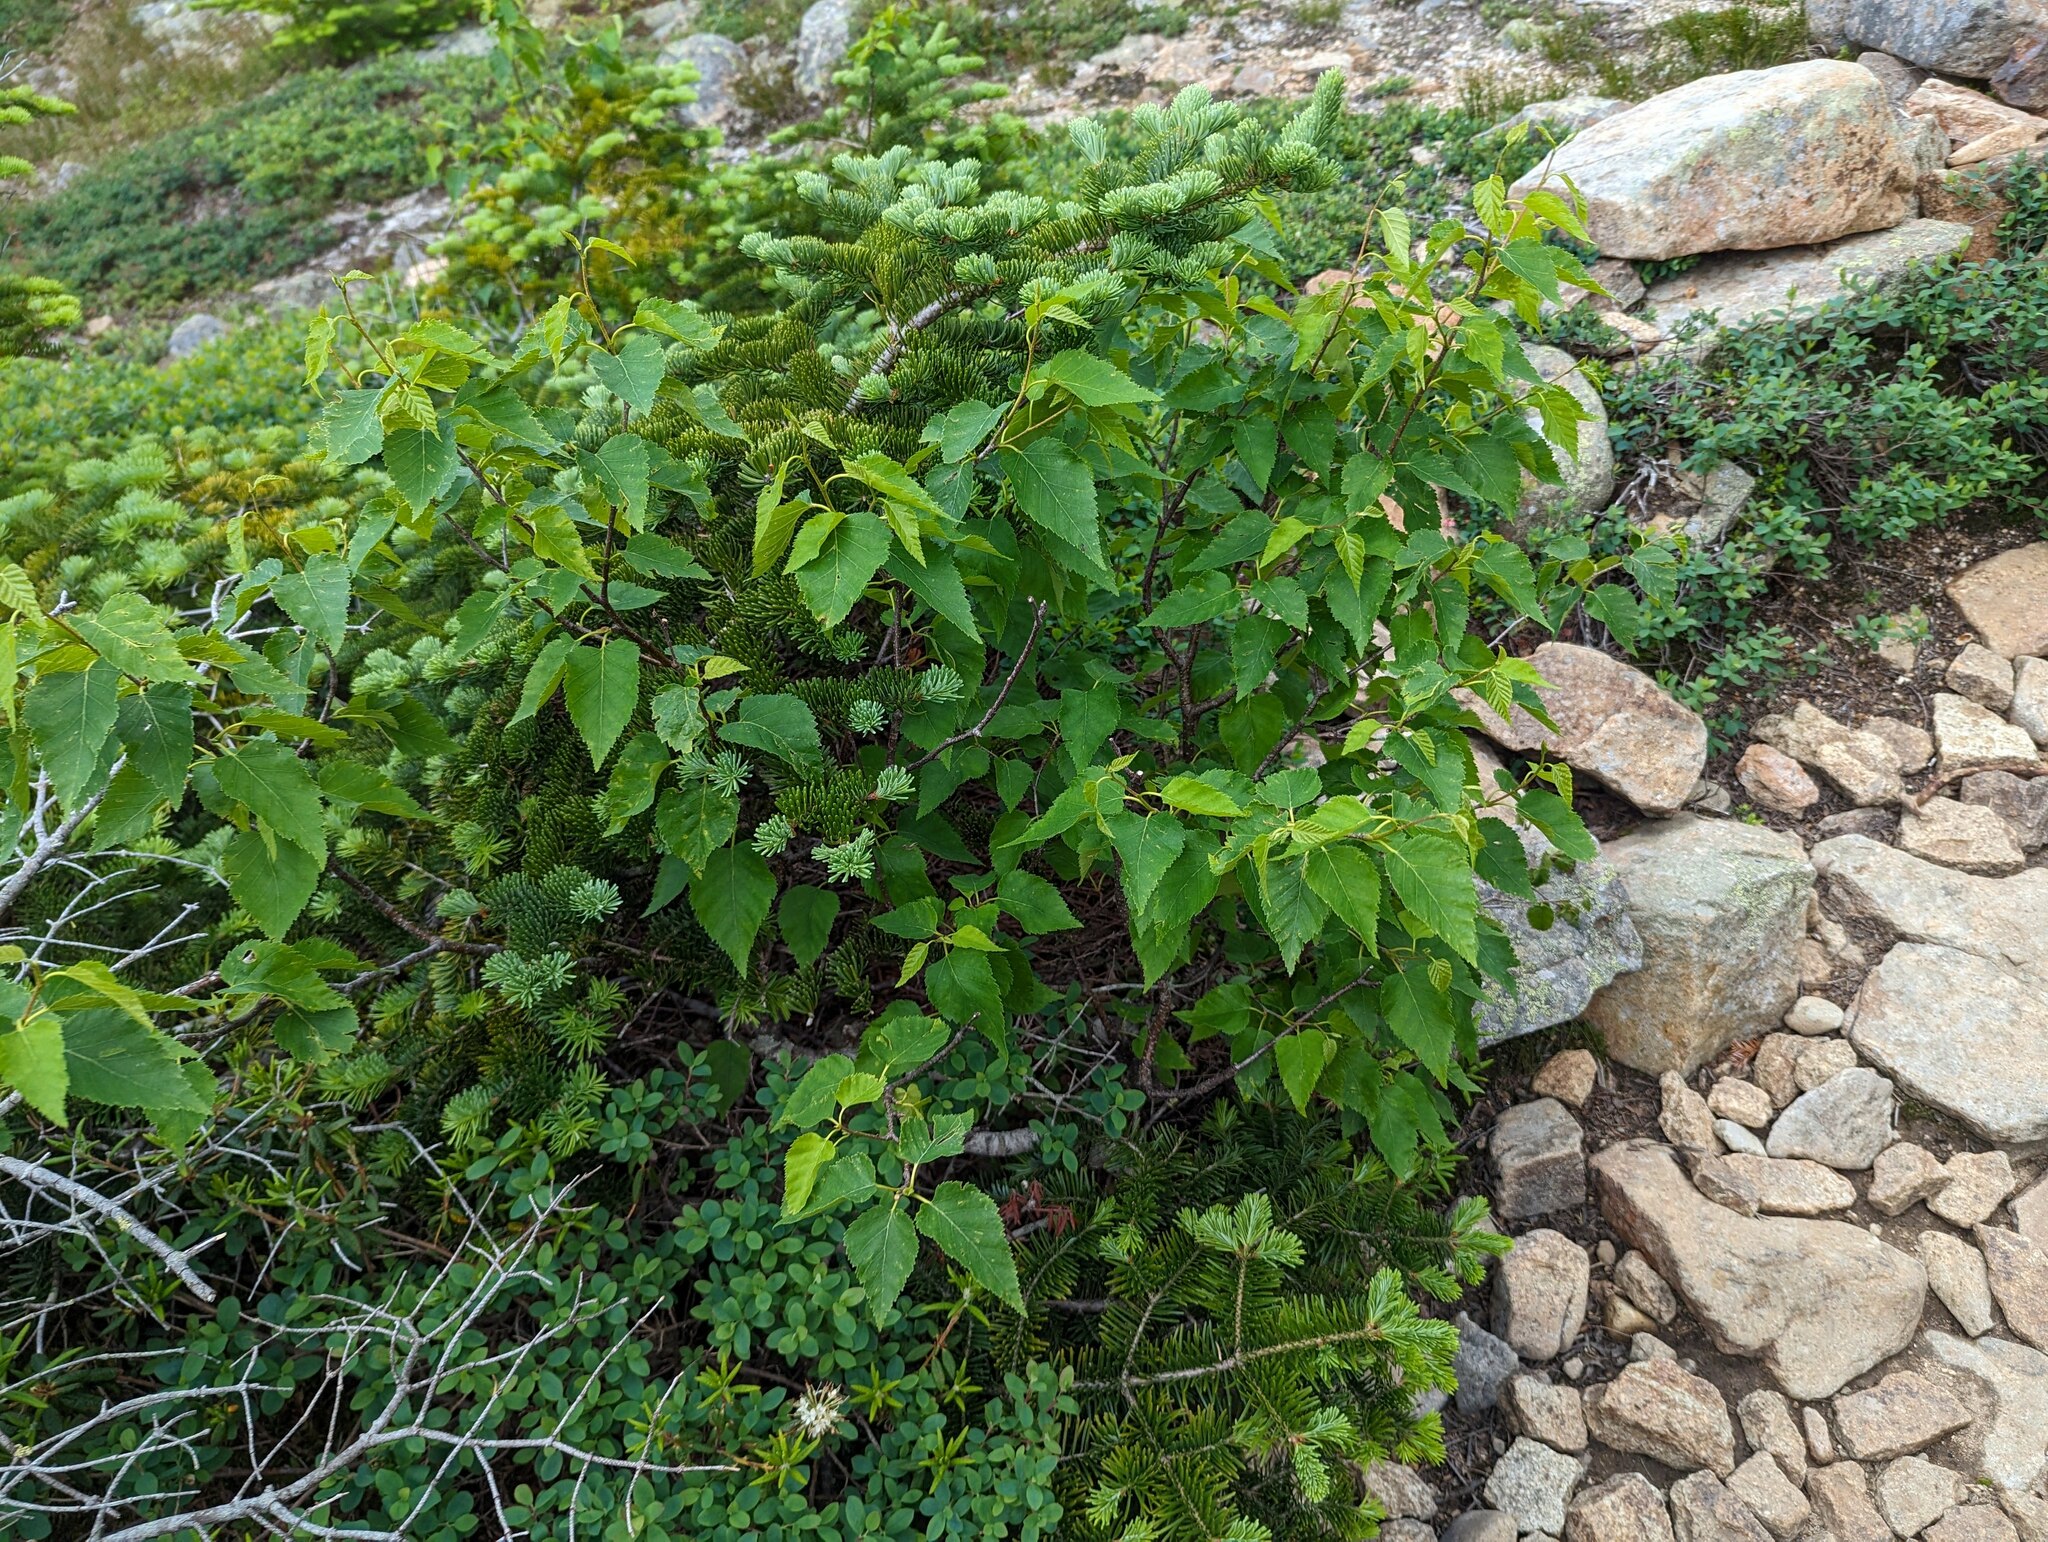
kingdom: Plantae
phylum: Tracheophyta
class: Pinopsida
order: Pinales
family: Pinaceae
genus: Abies
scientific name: Abies balsamea
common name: Balsam fir
